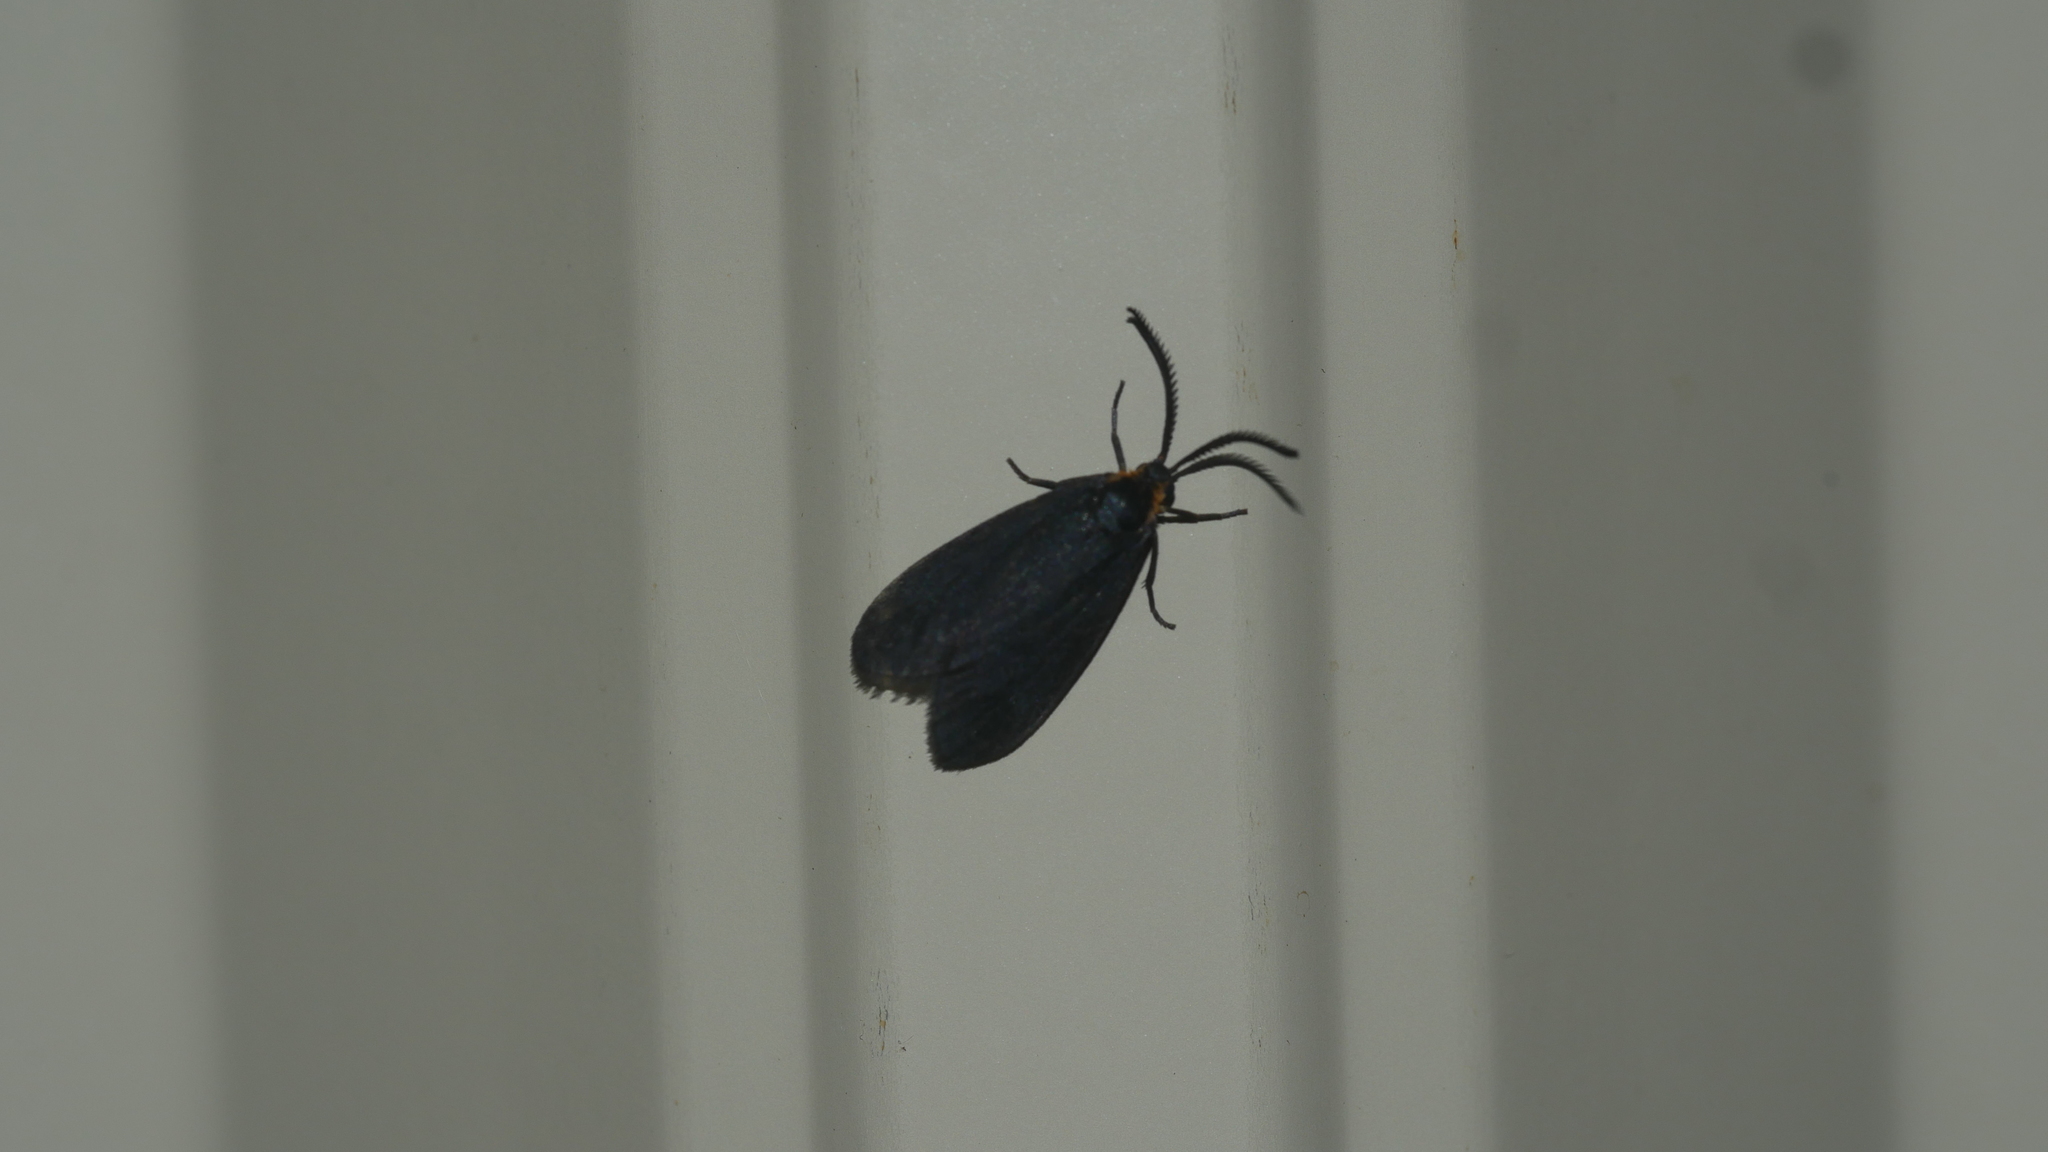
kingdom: Animalia
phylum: Arthropoda
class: Insecta
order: Lepidoptera
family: Zygaenidae
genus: Acoloithus
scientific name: Acoloithus falsarius
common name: Clemens' false skeletonizer
